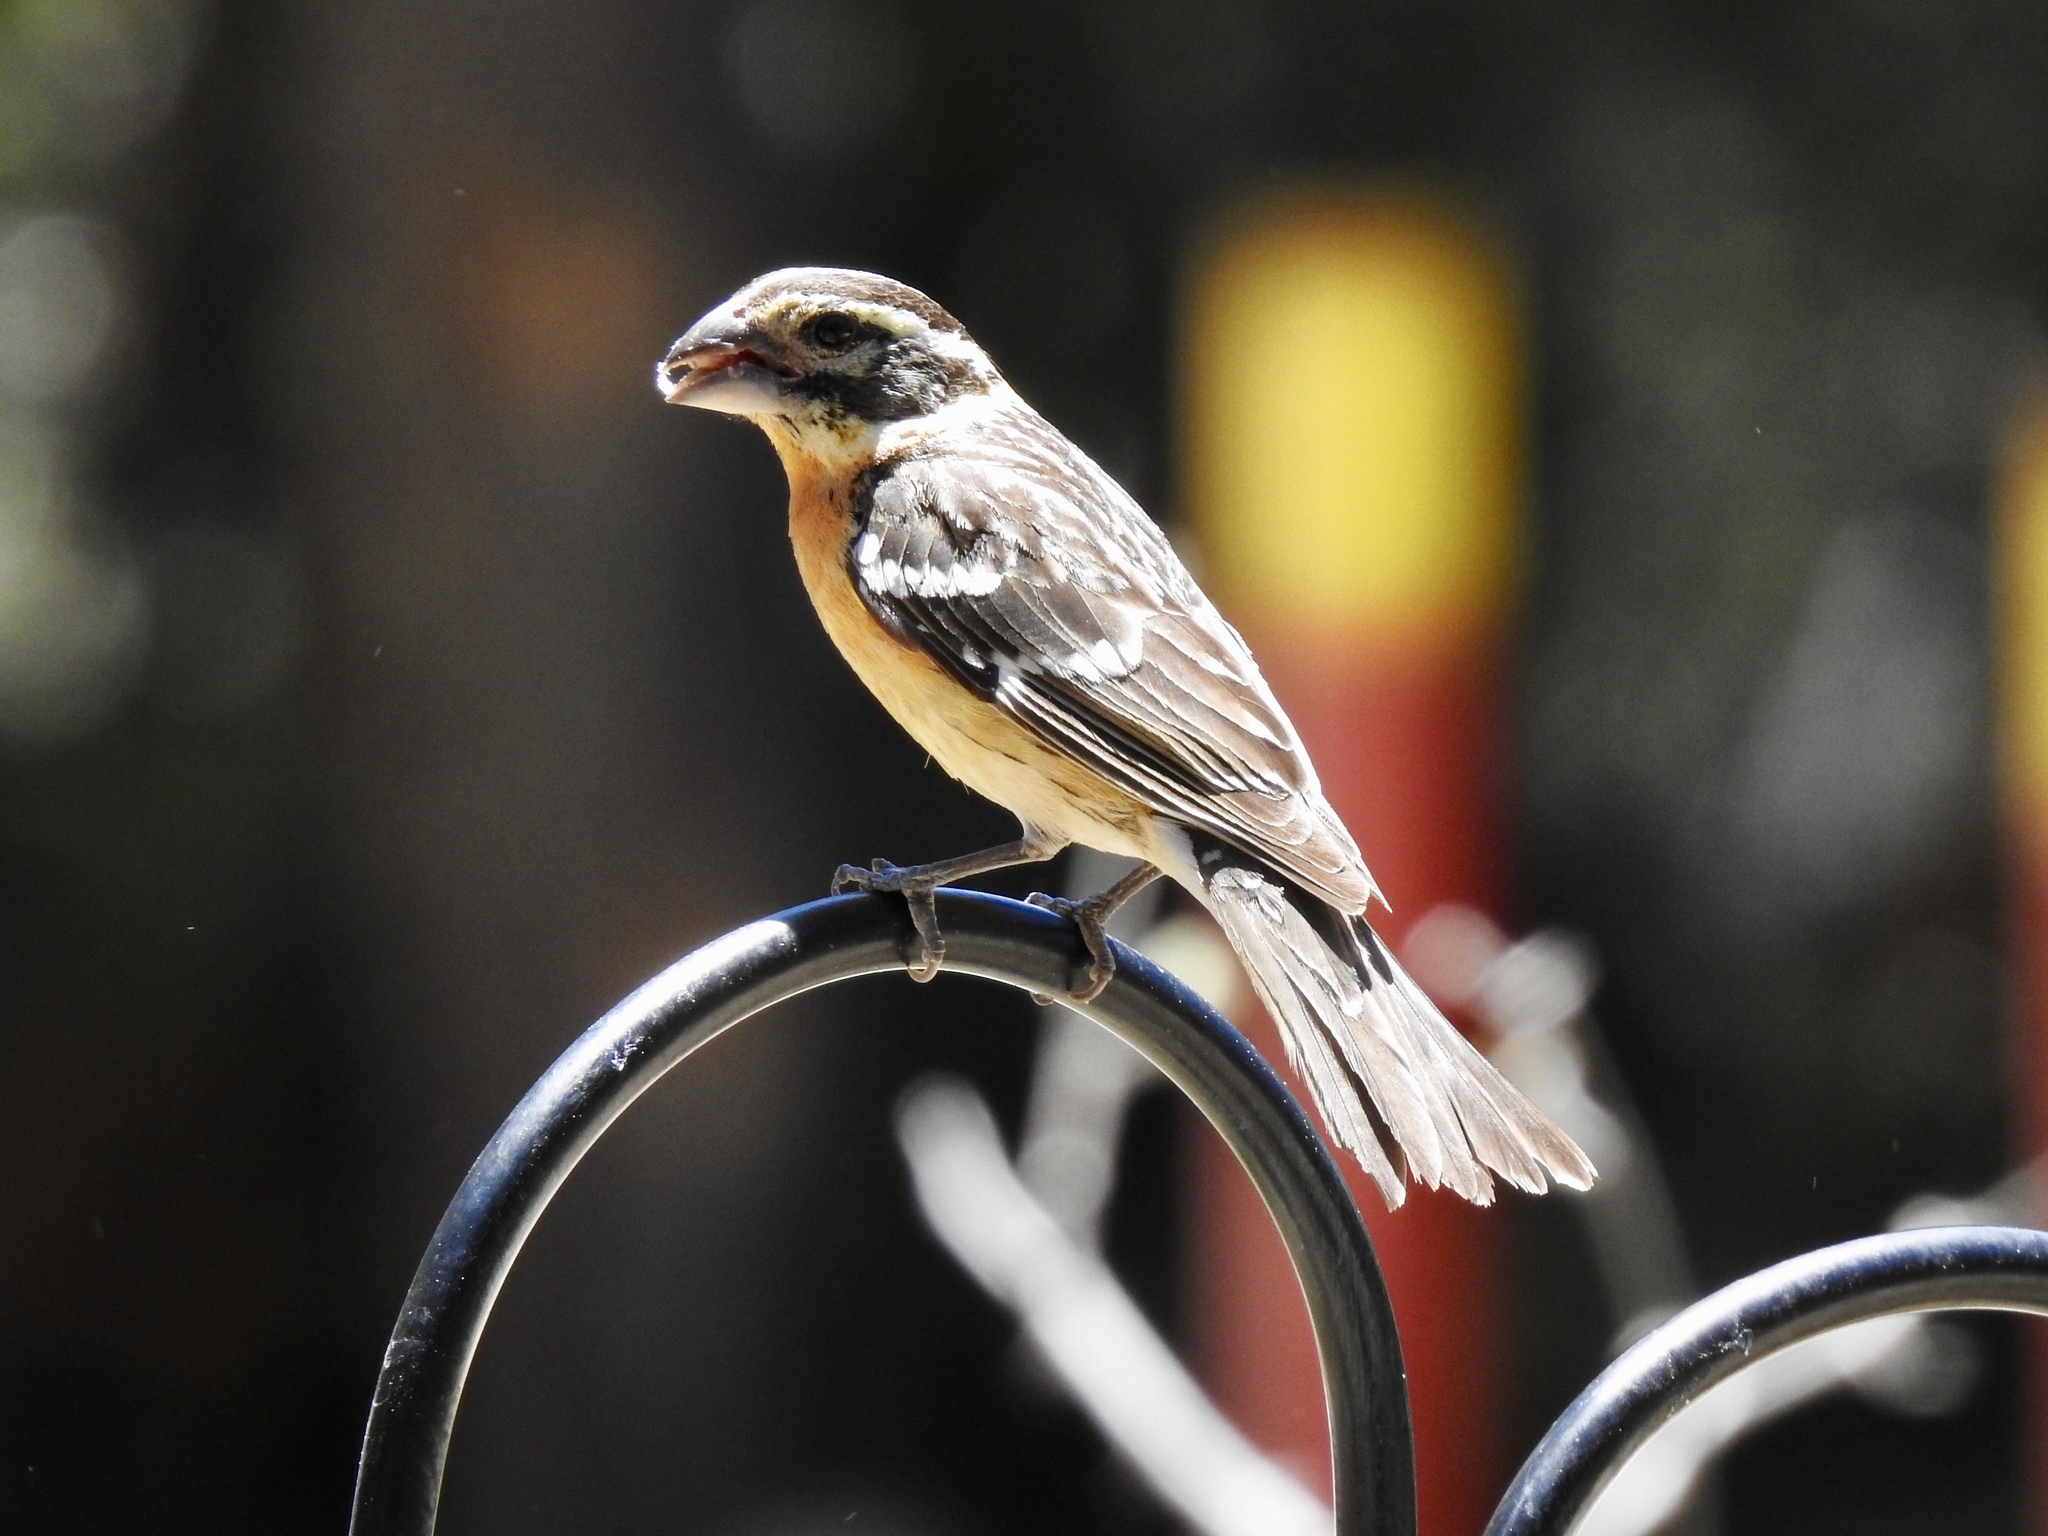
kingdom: Animalia
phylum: Chordata
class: Aves
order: Passeriformes
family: Cardinalidae
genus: Pheucticus
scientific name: Pheucticus melanocephalus
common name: Black-headed grosbeak
